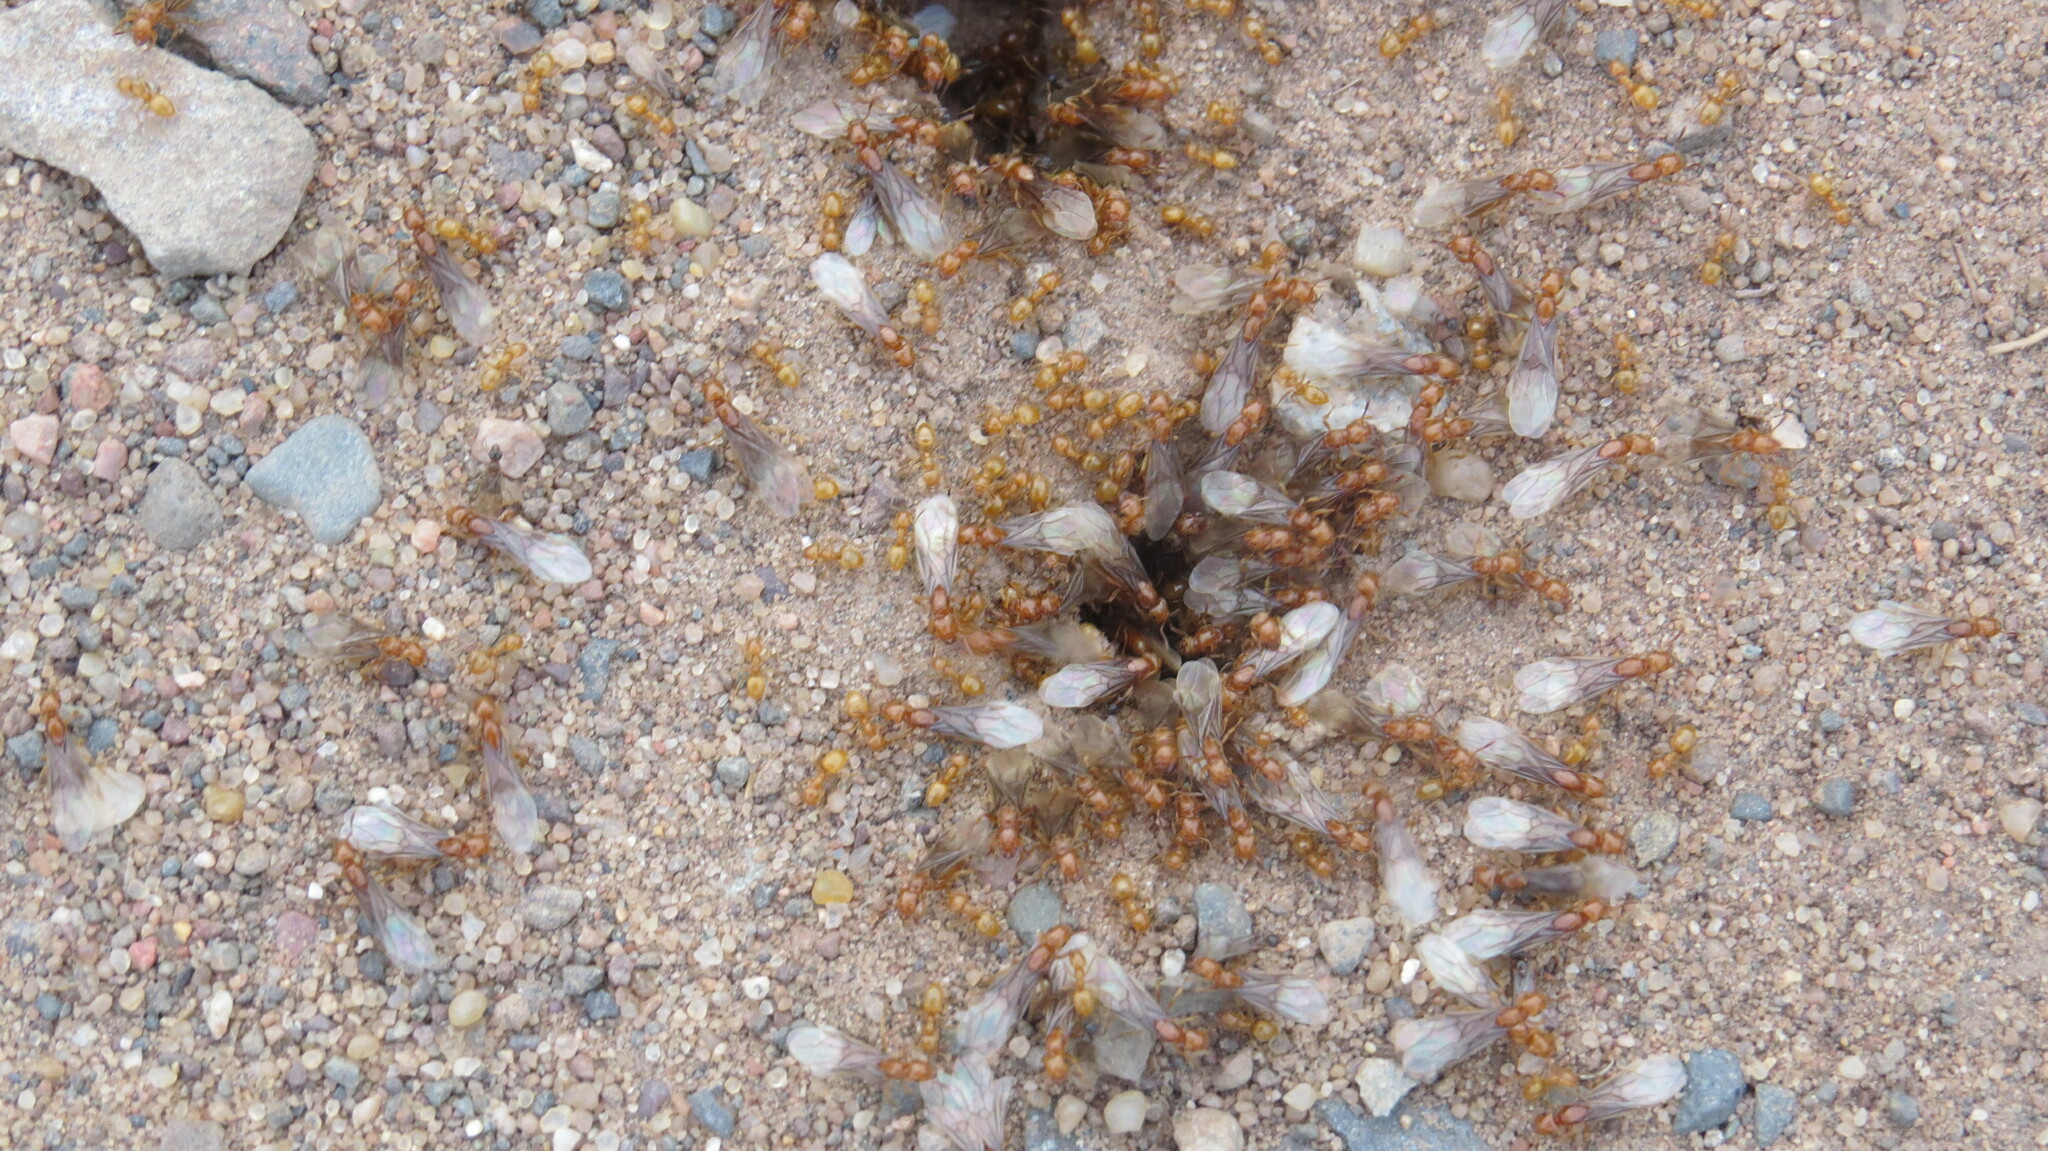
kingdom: Animalia
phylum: Arthropoda
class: Insecta
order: Hymenoptera
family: Formicidae
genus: Acanthomyops
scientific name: Acanthomyops interjectus
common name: Larger yellow ant
